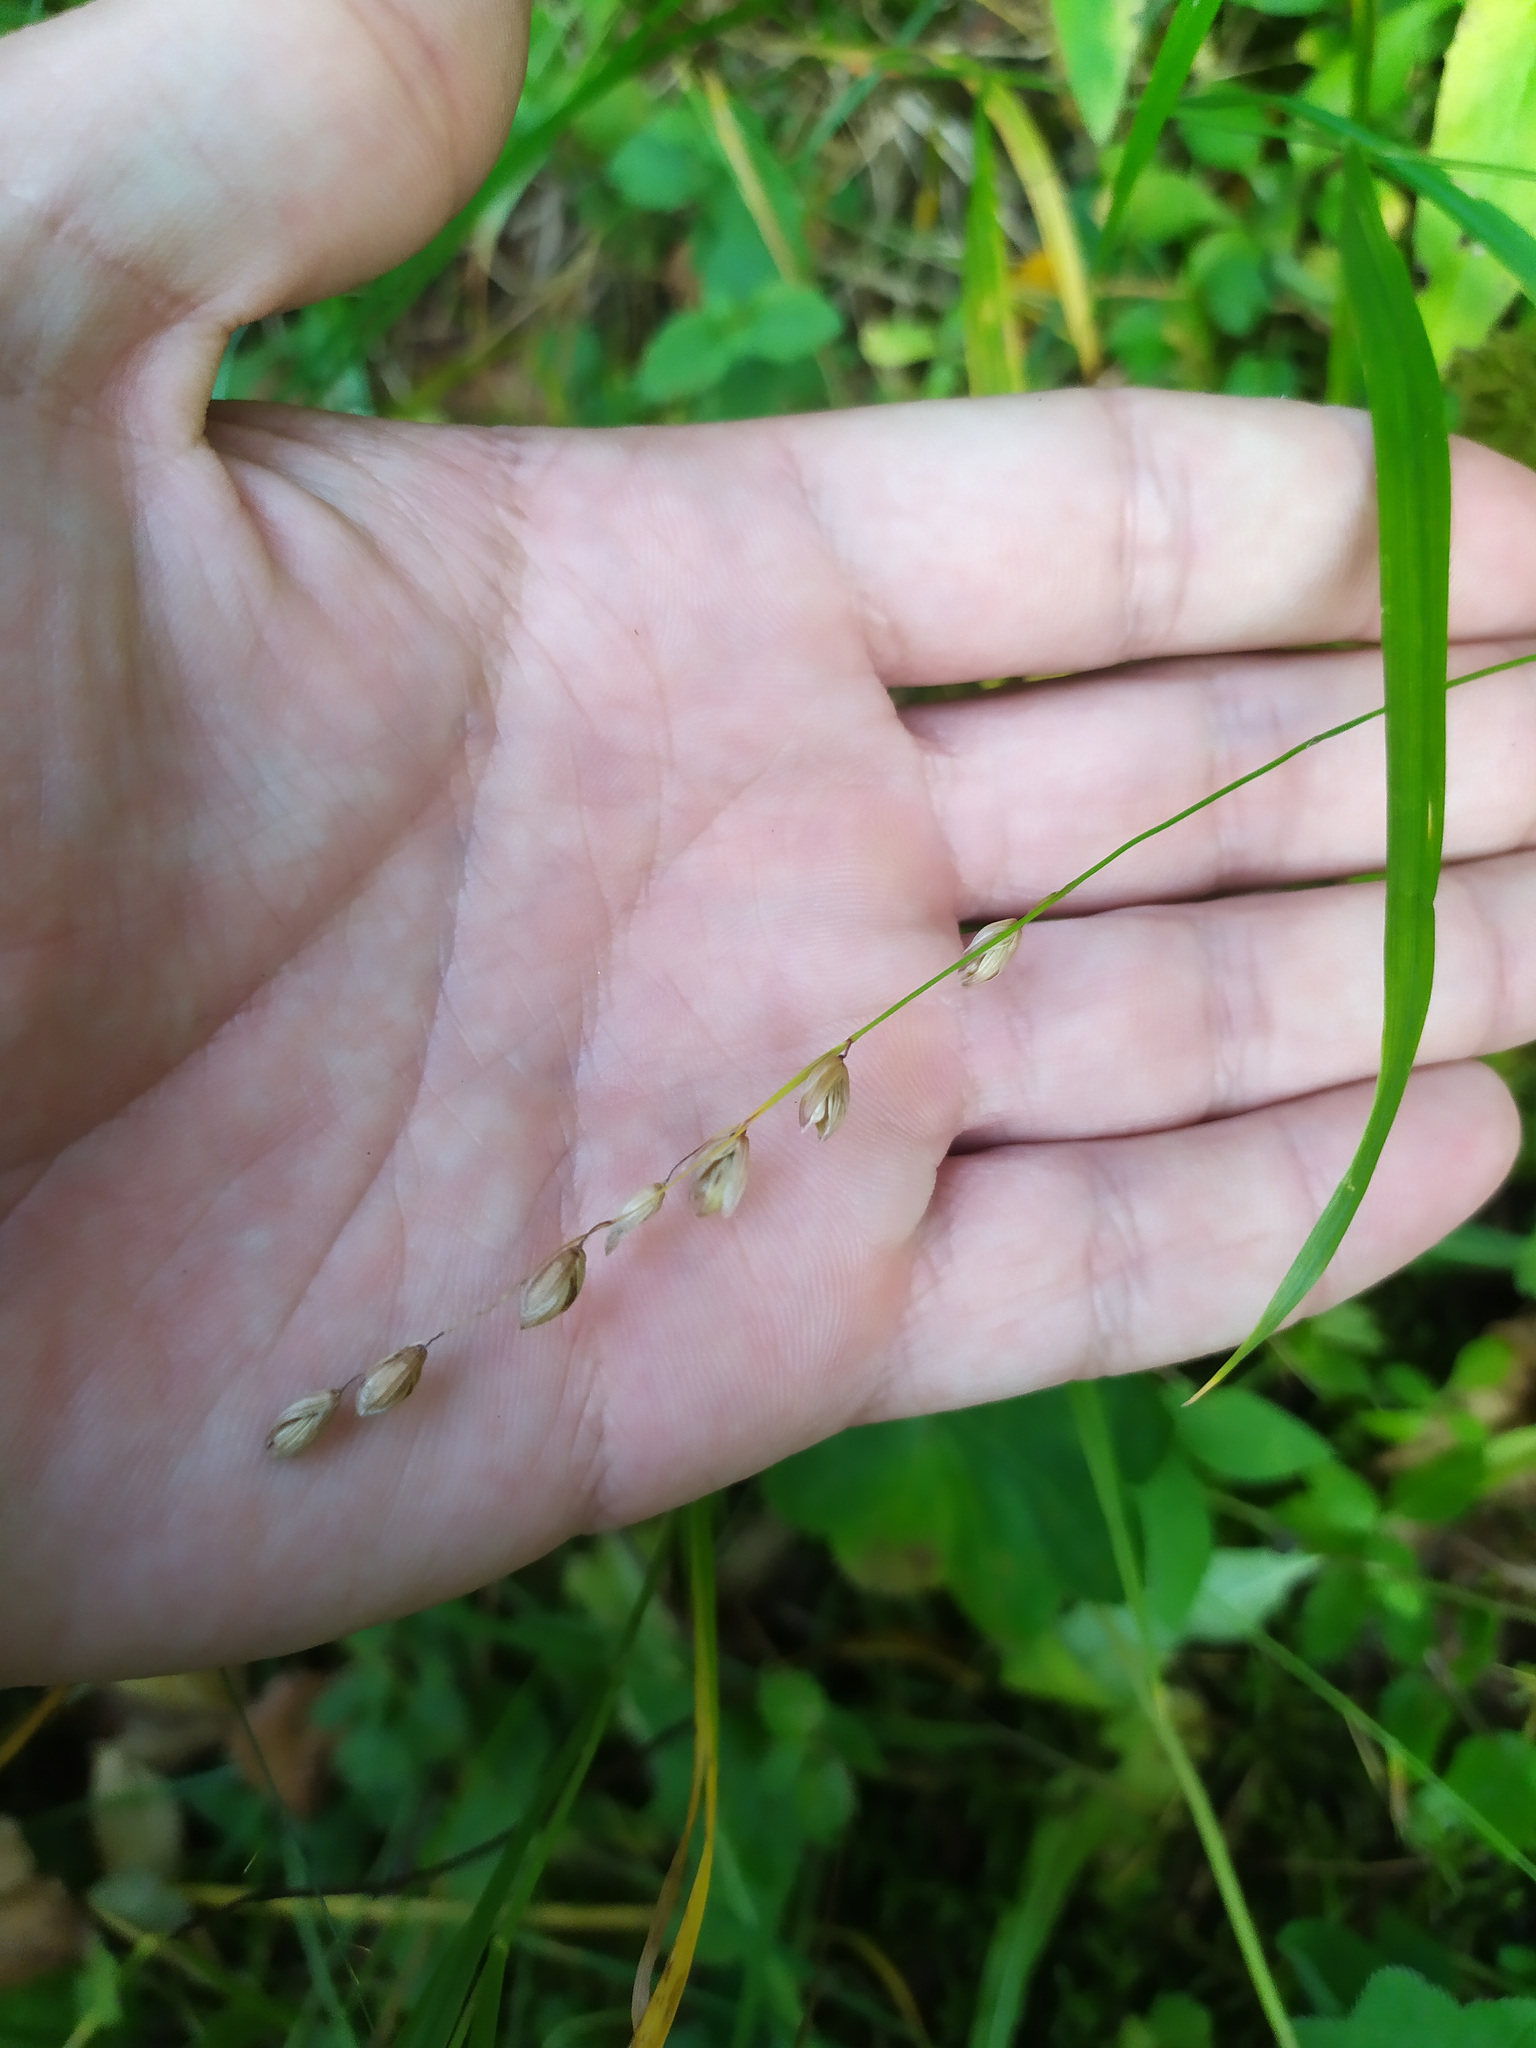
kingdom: Plantae
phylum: Tracheophyta
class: Liliopsida
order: Poales
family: Poaceae
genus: Melica
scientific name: Melica nutans
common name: Mountain melick
